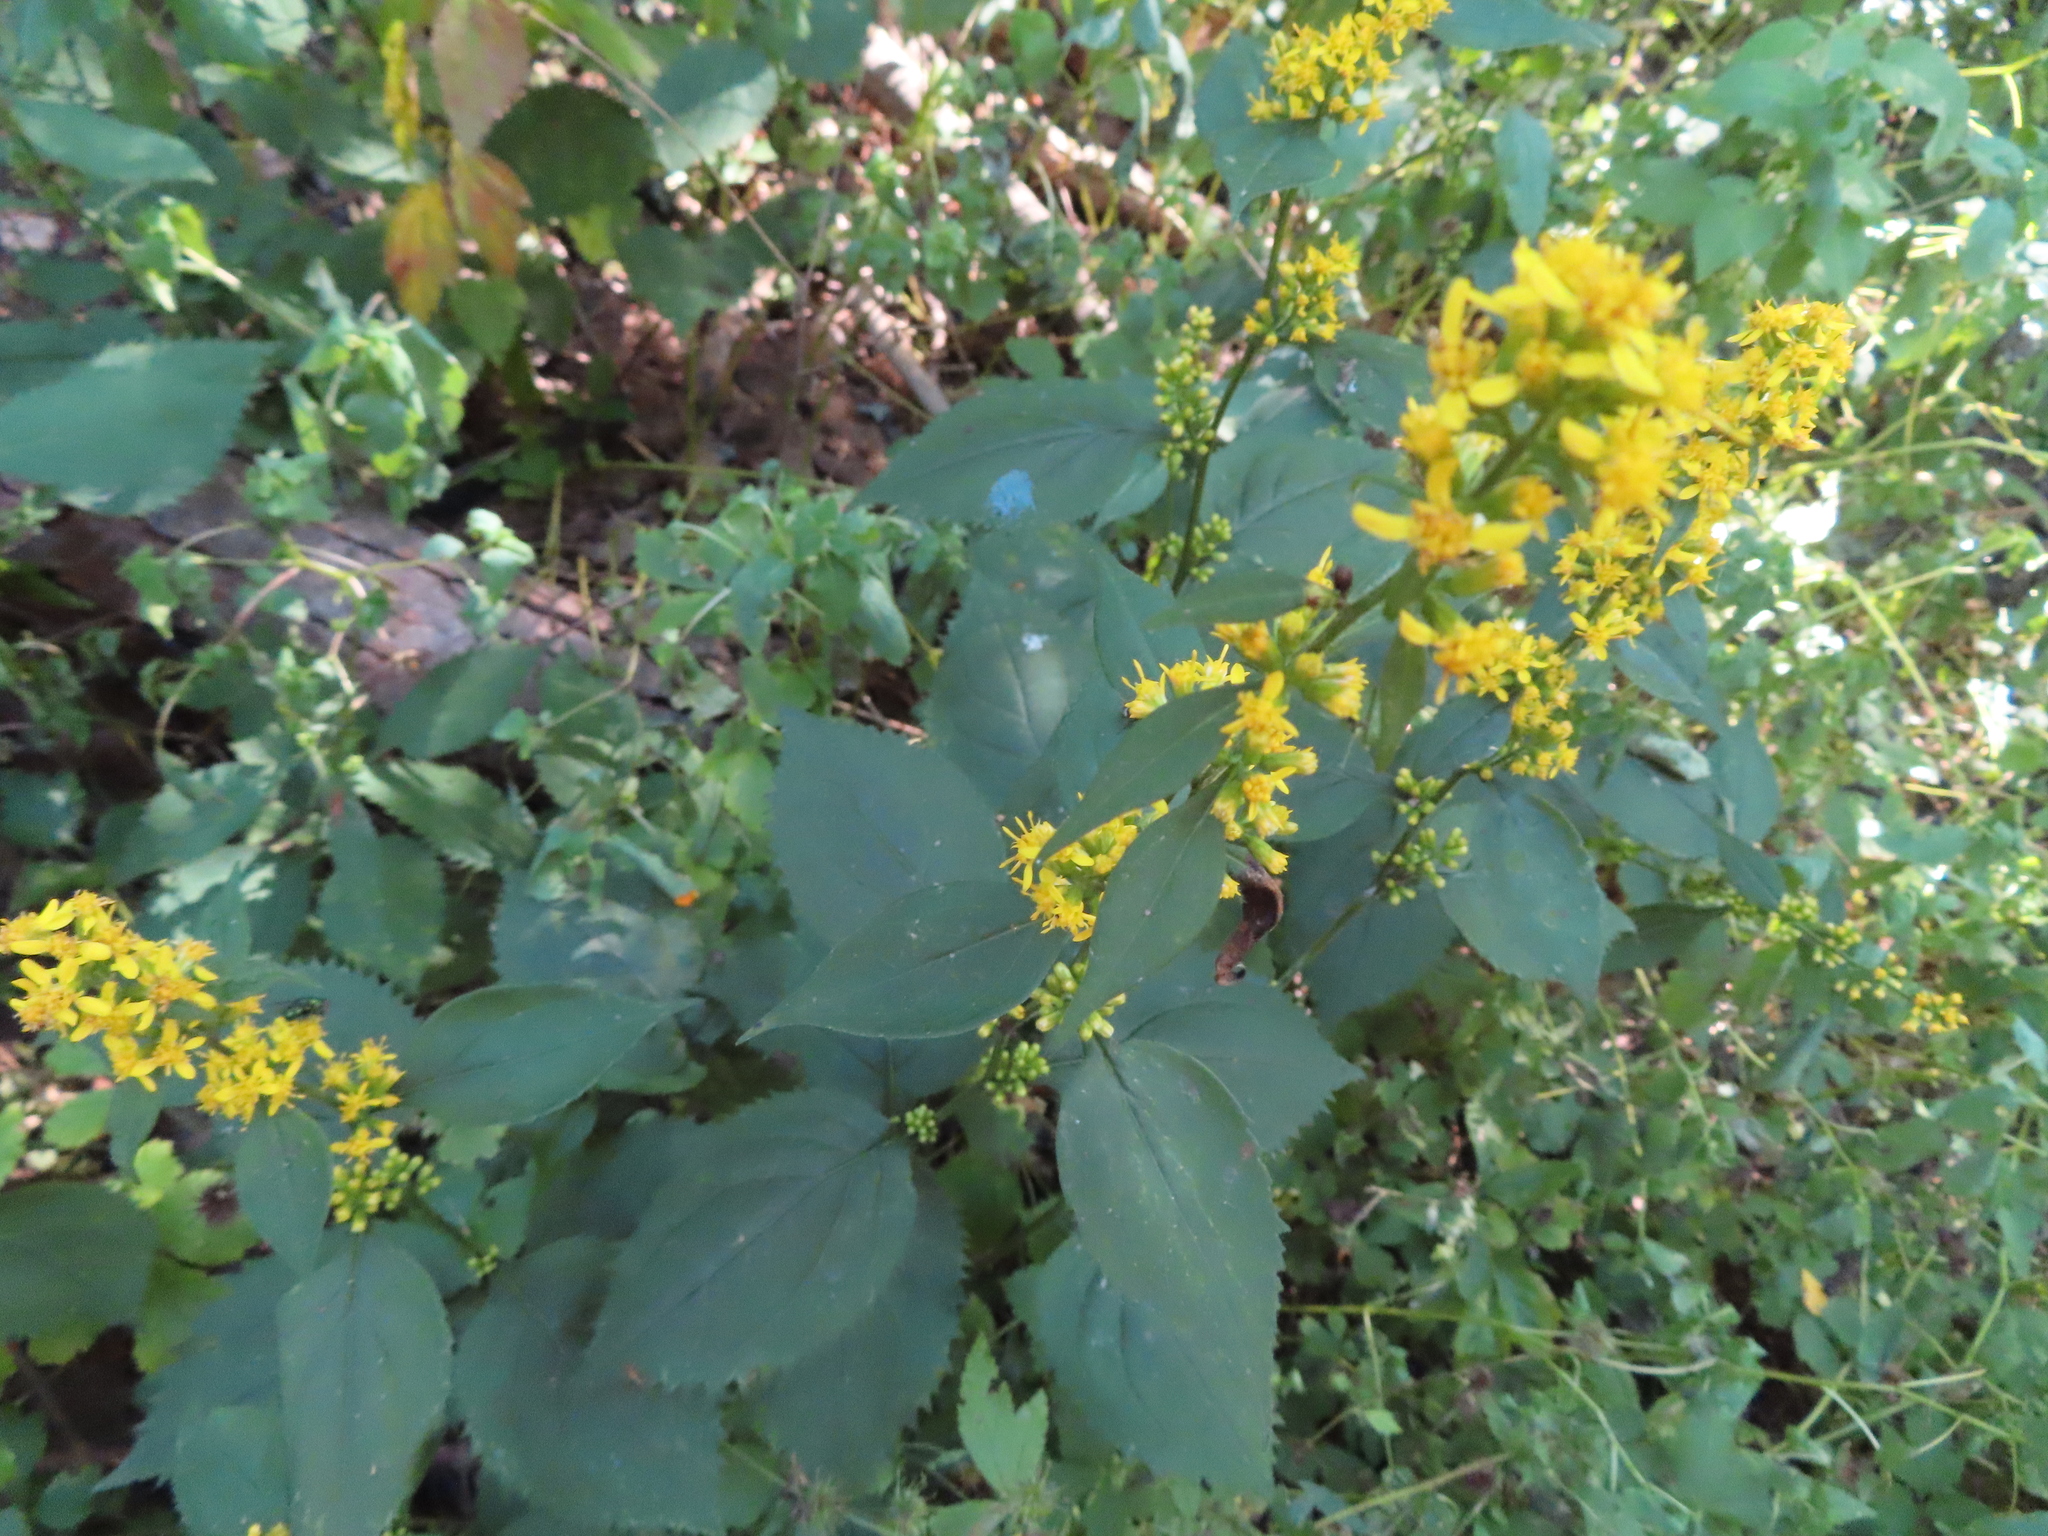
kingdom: Plantae
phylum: Tracheophyta
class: Magnoliopsida
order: Asterales
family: Asteraceae
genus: Solidago
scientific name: Solidago flexicaulis
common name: Zig-zag goldenrod
